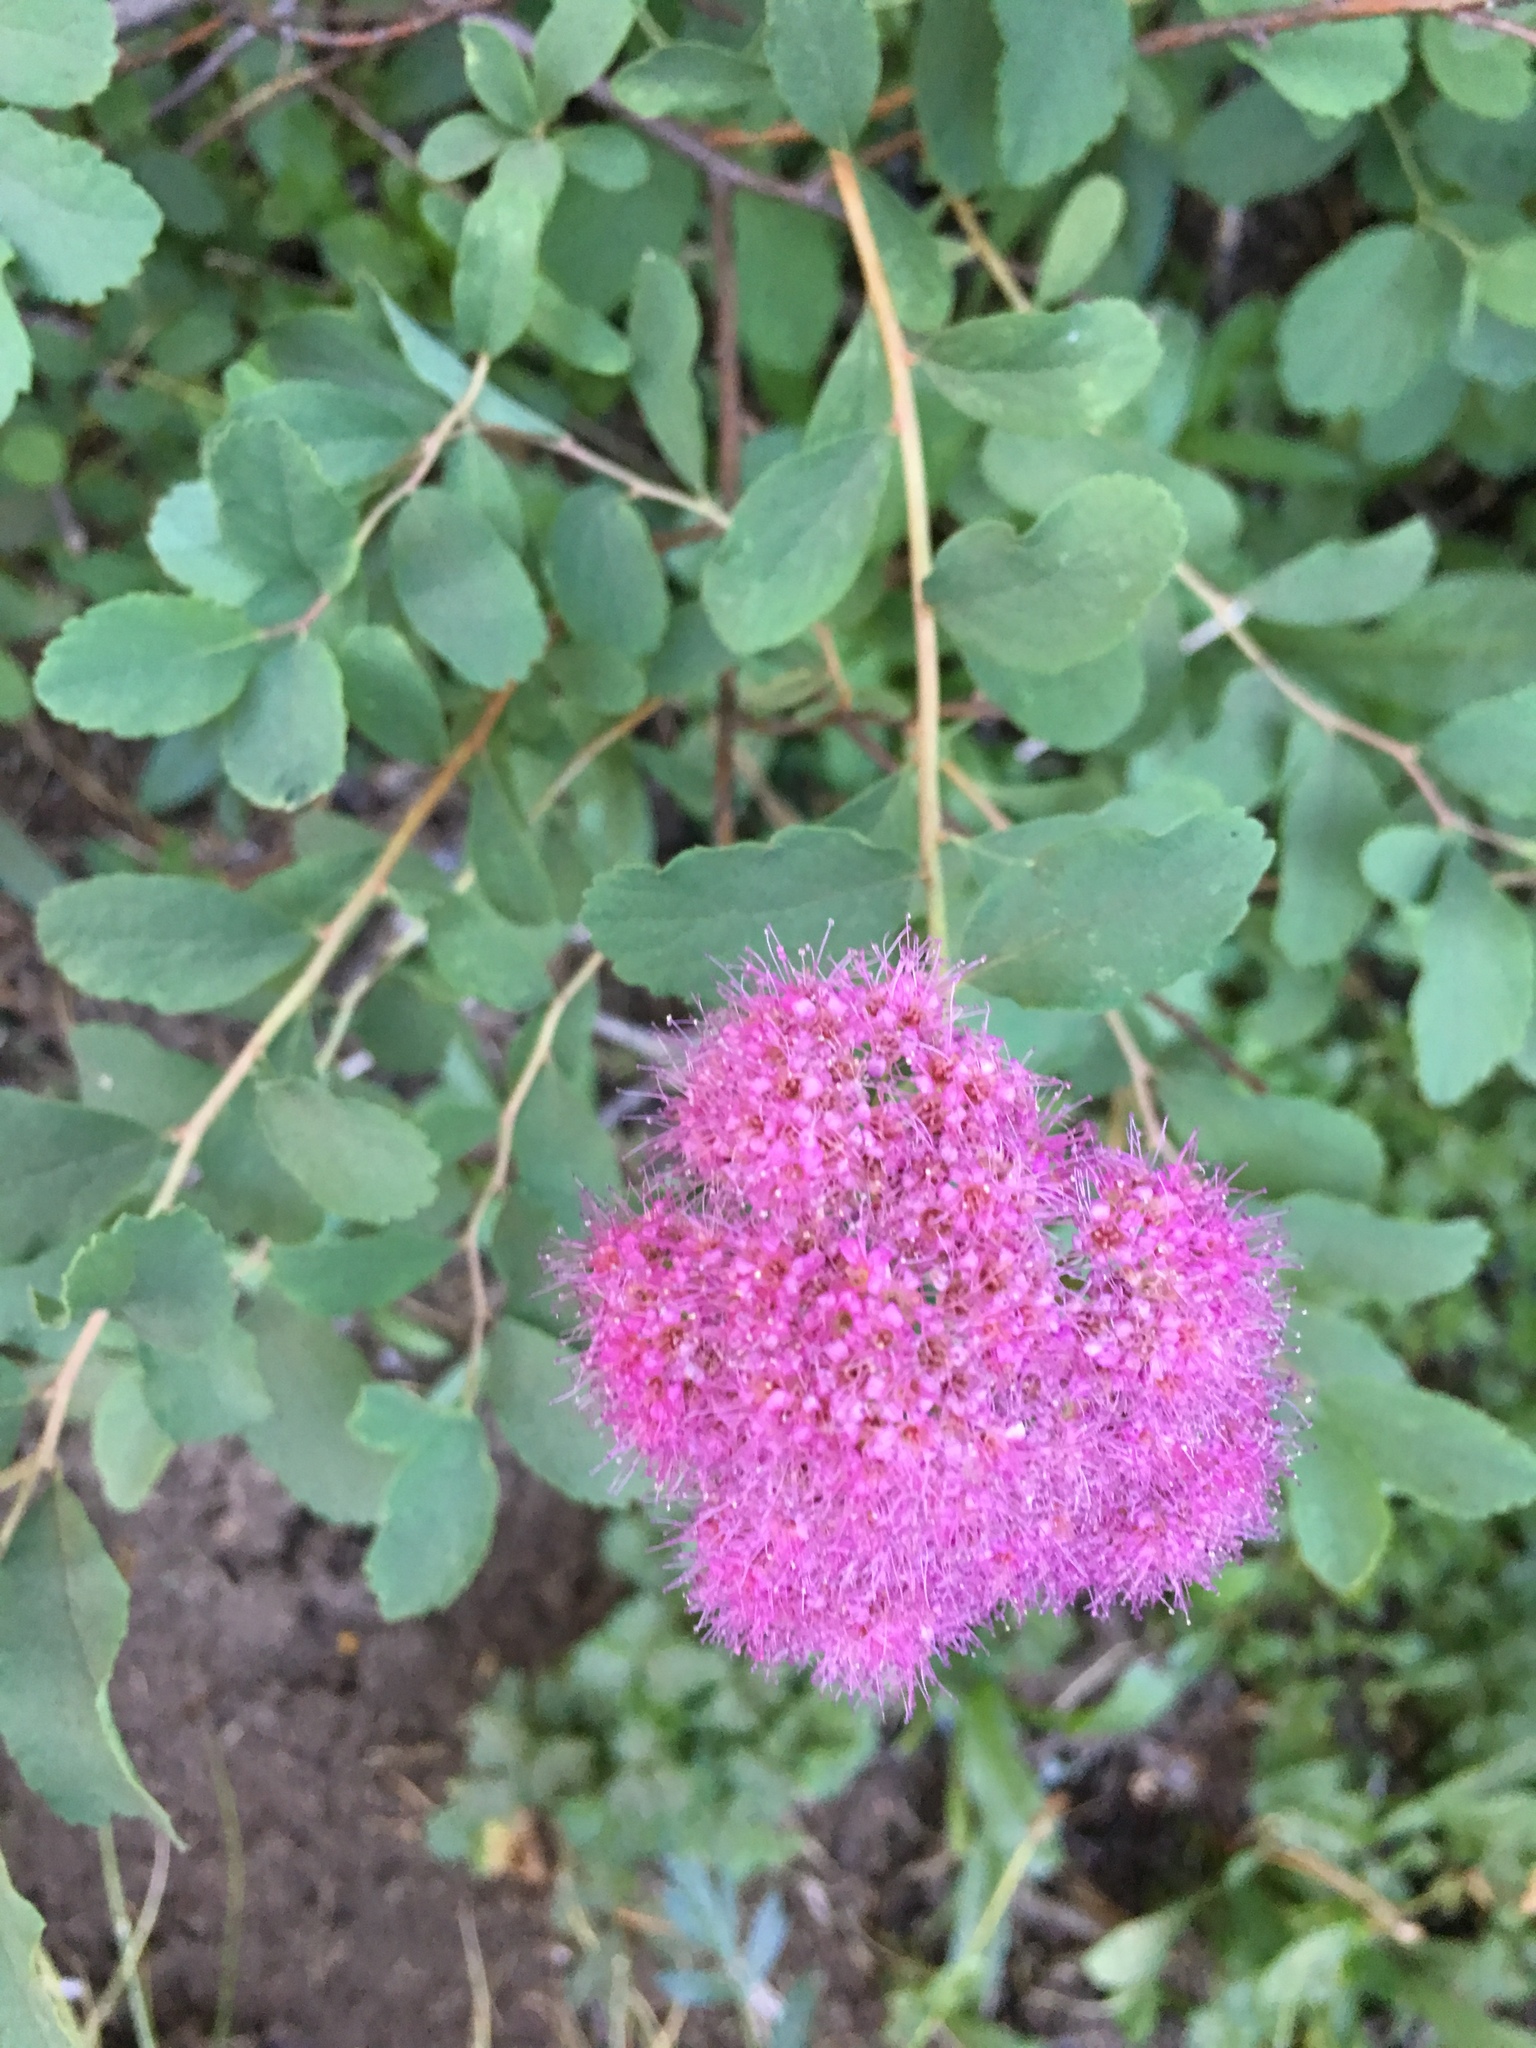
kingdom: Plantae
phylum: Tracheophyta
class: Magnoliopsida
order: Rosales
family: Rosaceae
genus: Spiraea
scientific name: Spiraea splendens
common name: Subalpine meadowsweet
